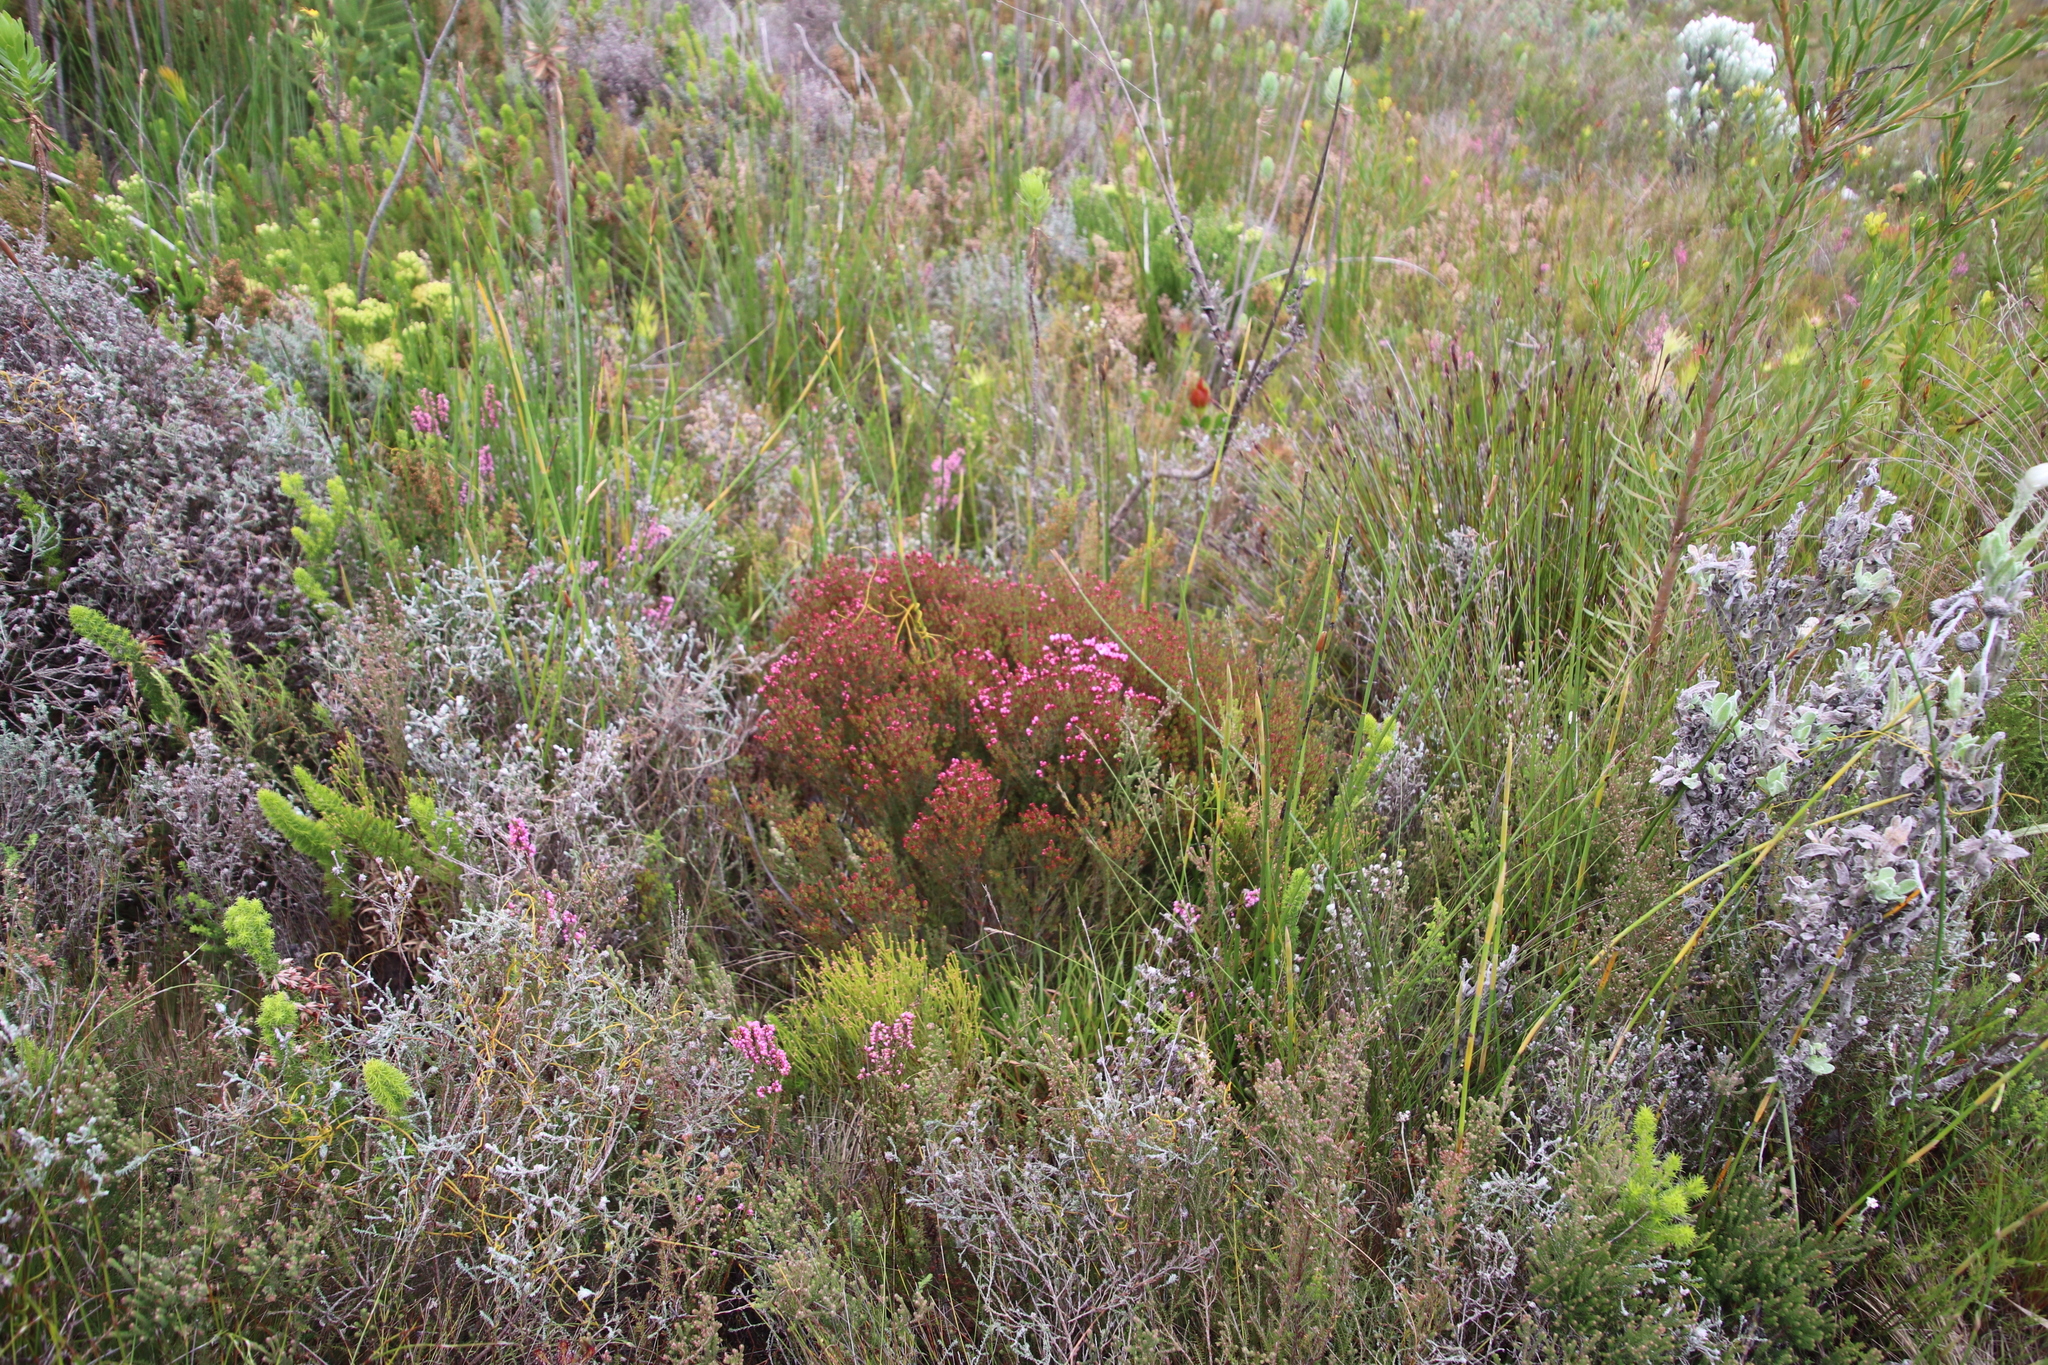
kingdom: Plantae
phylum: Tracheophyta
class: Magnoliopsida
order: Myrtales
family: Penaeaceae
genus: Brachysiphon
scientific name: Brachysiphon acutus
